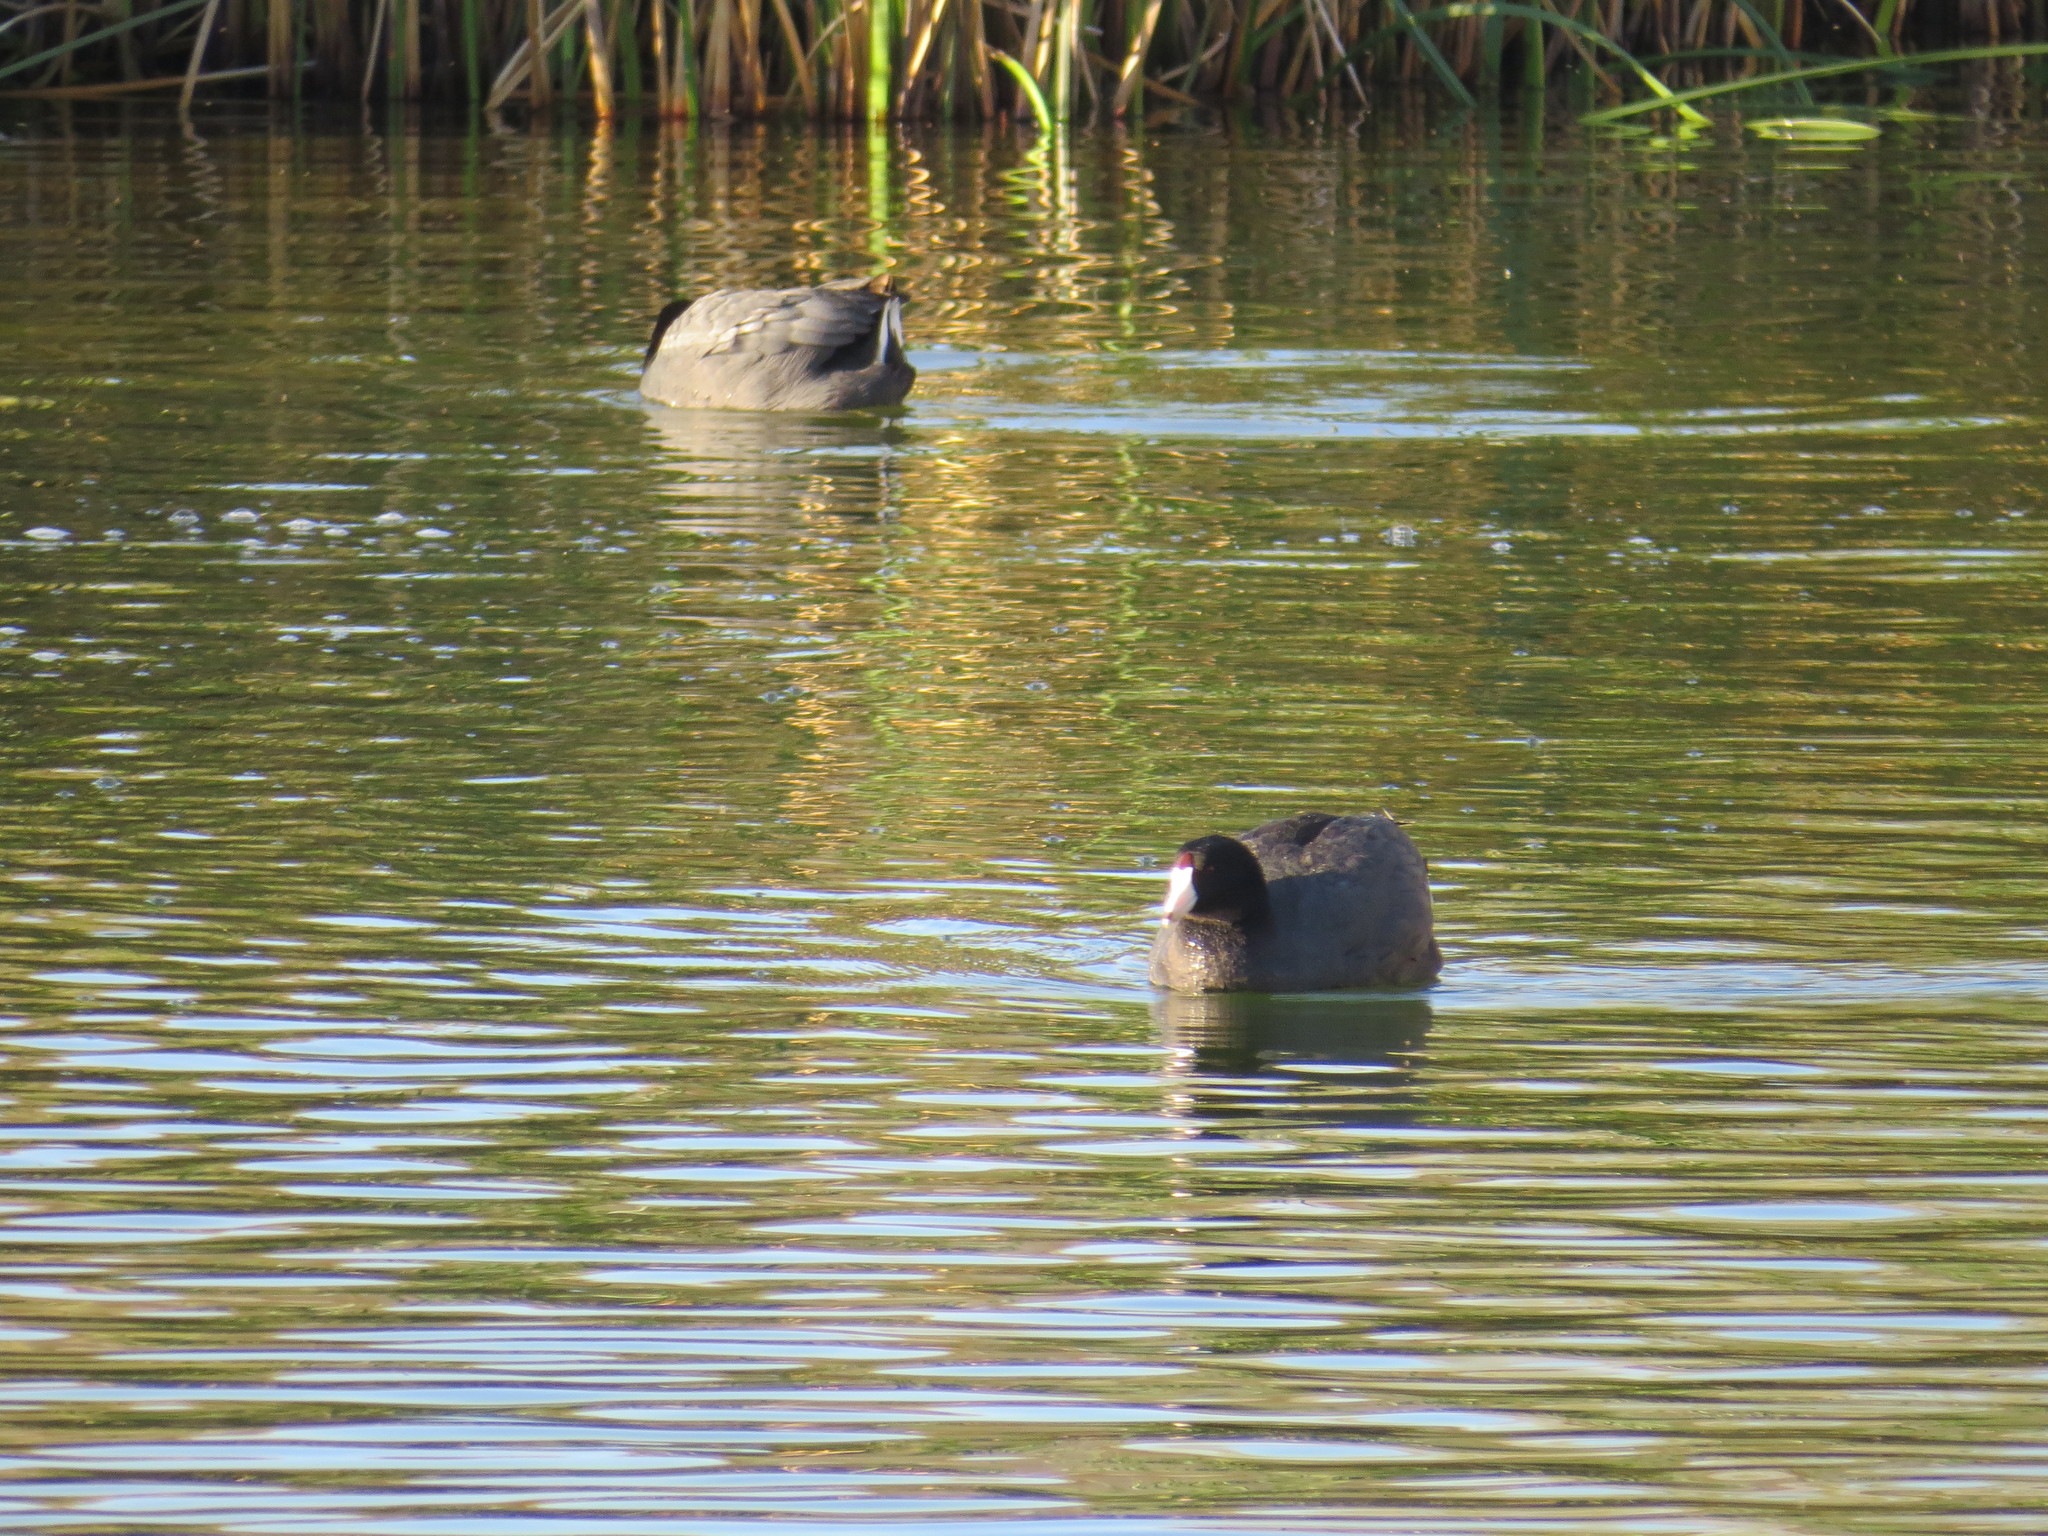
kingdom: Animalia
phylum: Chordata
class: Aves
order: Gruiformes
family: Rallidae
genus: Fulica
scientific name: Fulica americana
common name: American coot
